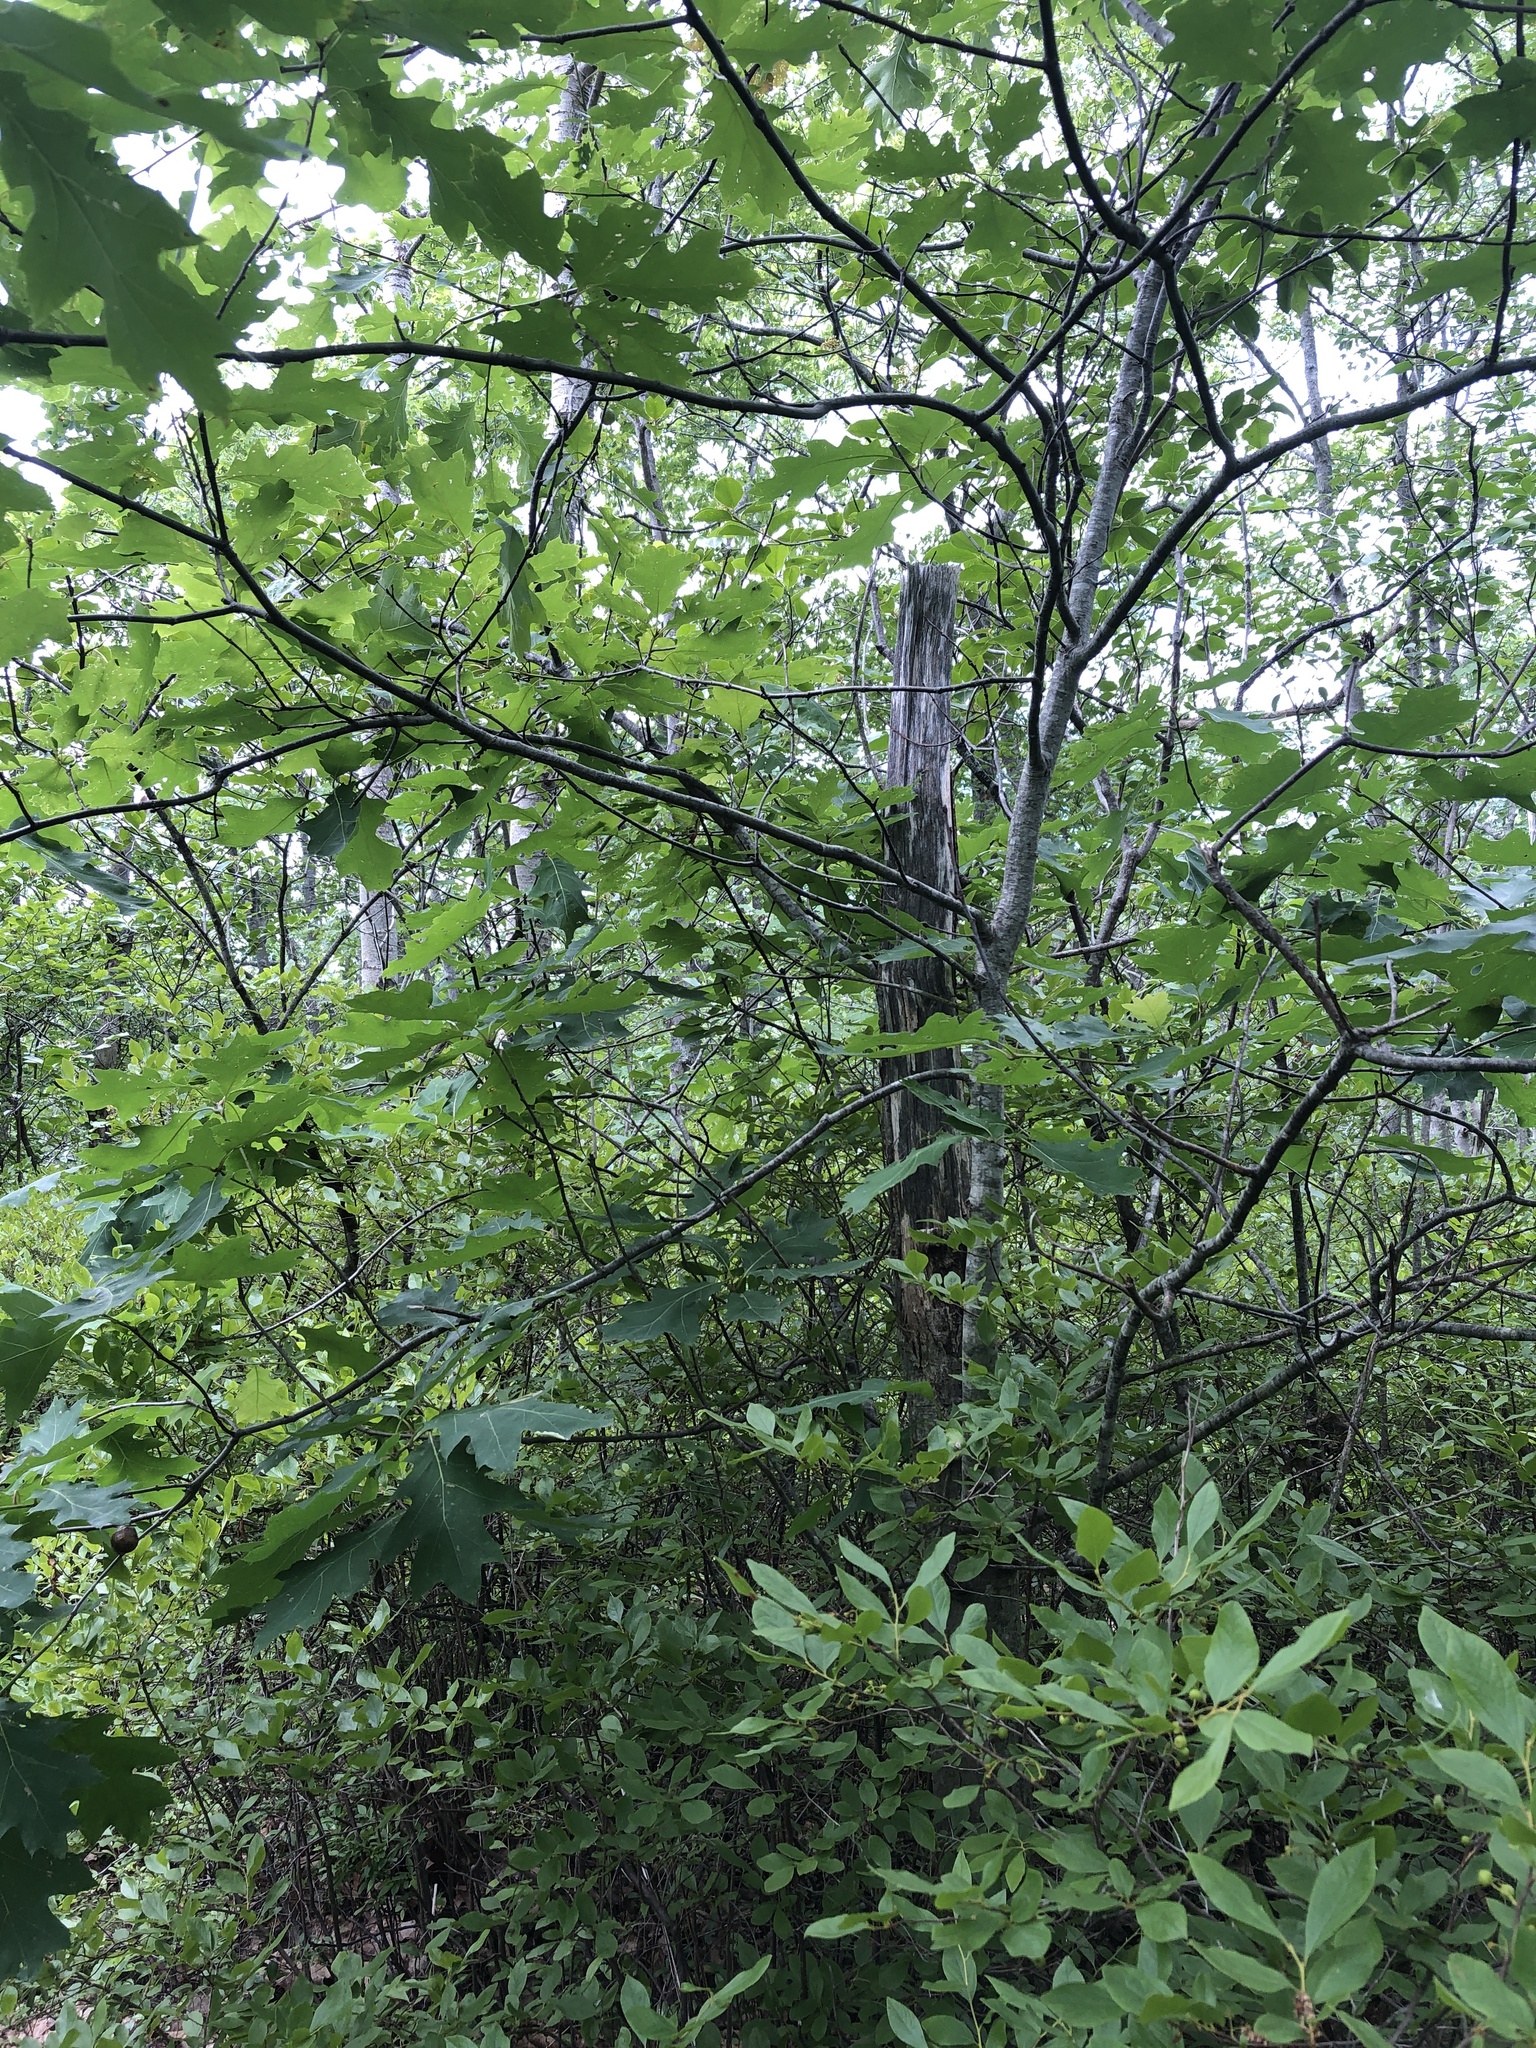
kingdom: Plantae
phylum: Tracheophyta
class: Magnoliopsida
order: Fagales
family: Fagaceae
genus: Quercus
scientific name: Quercus rubra
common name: Red oak
